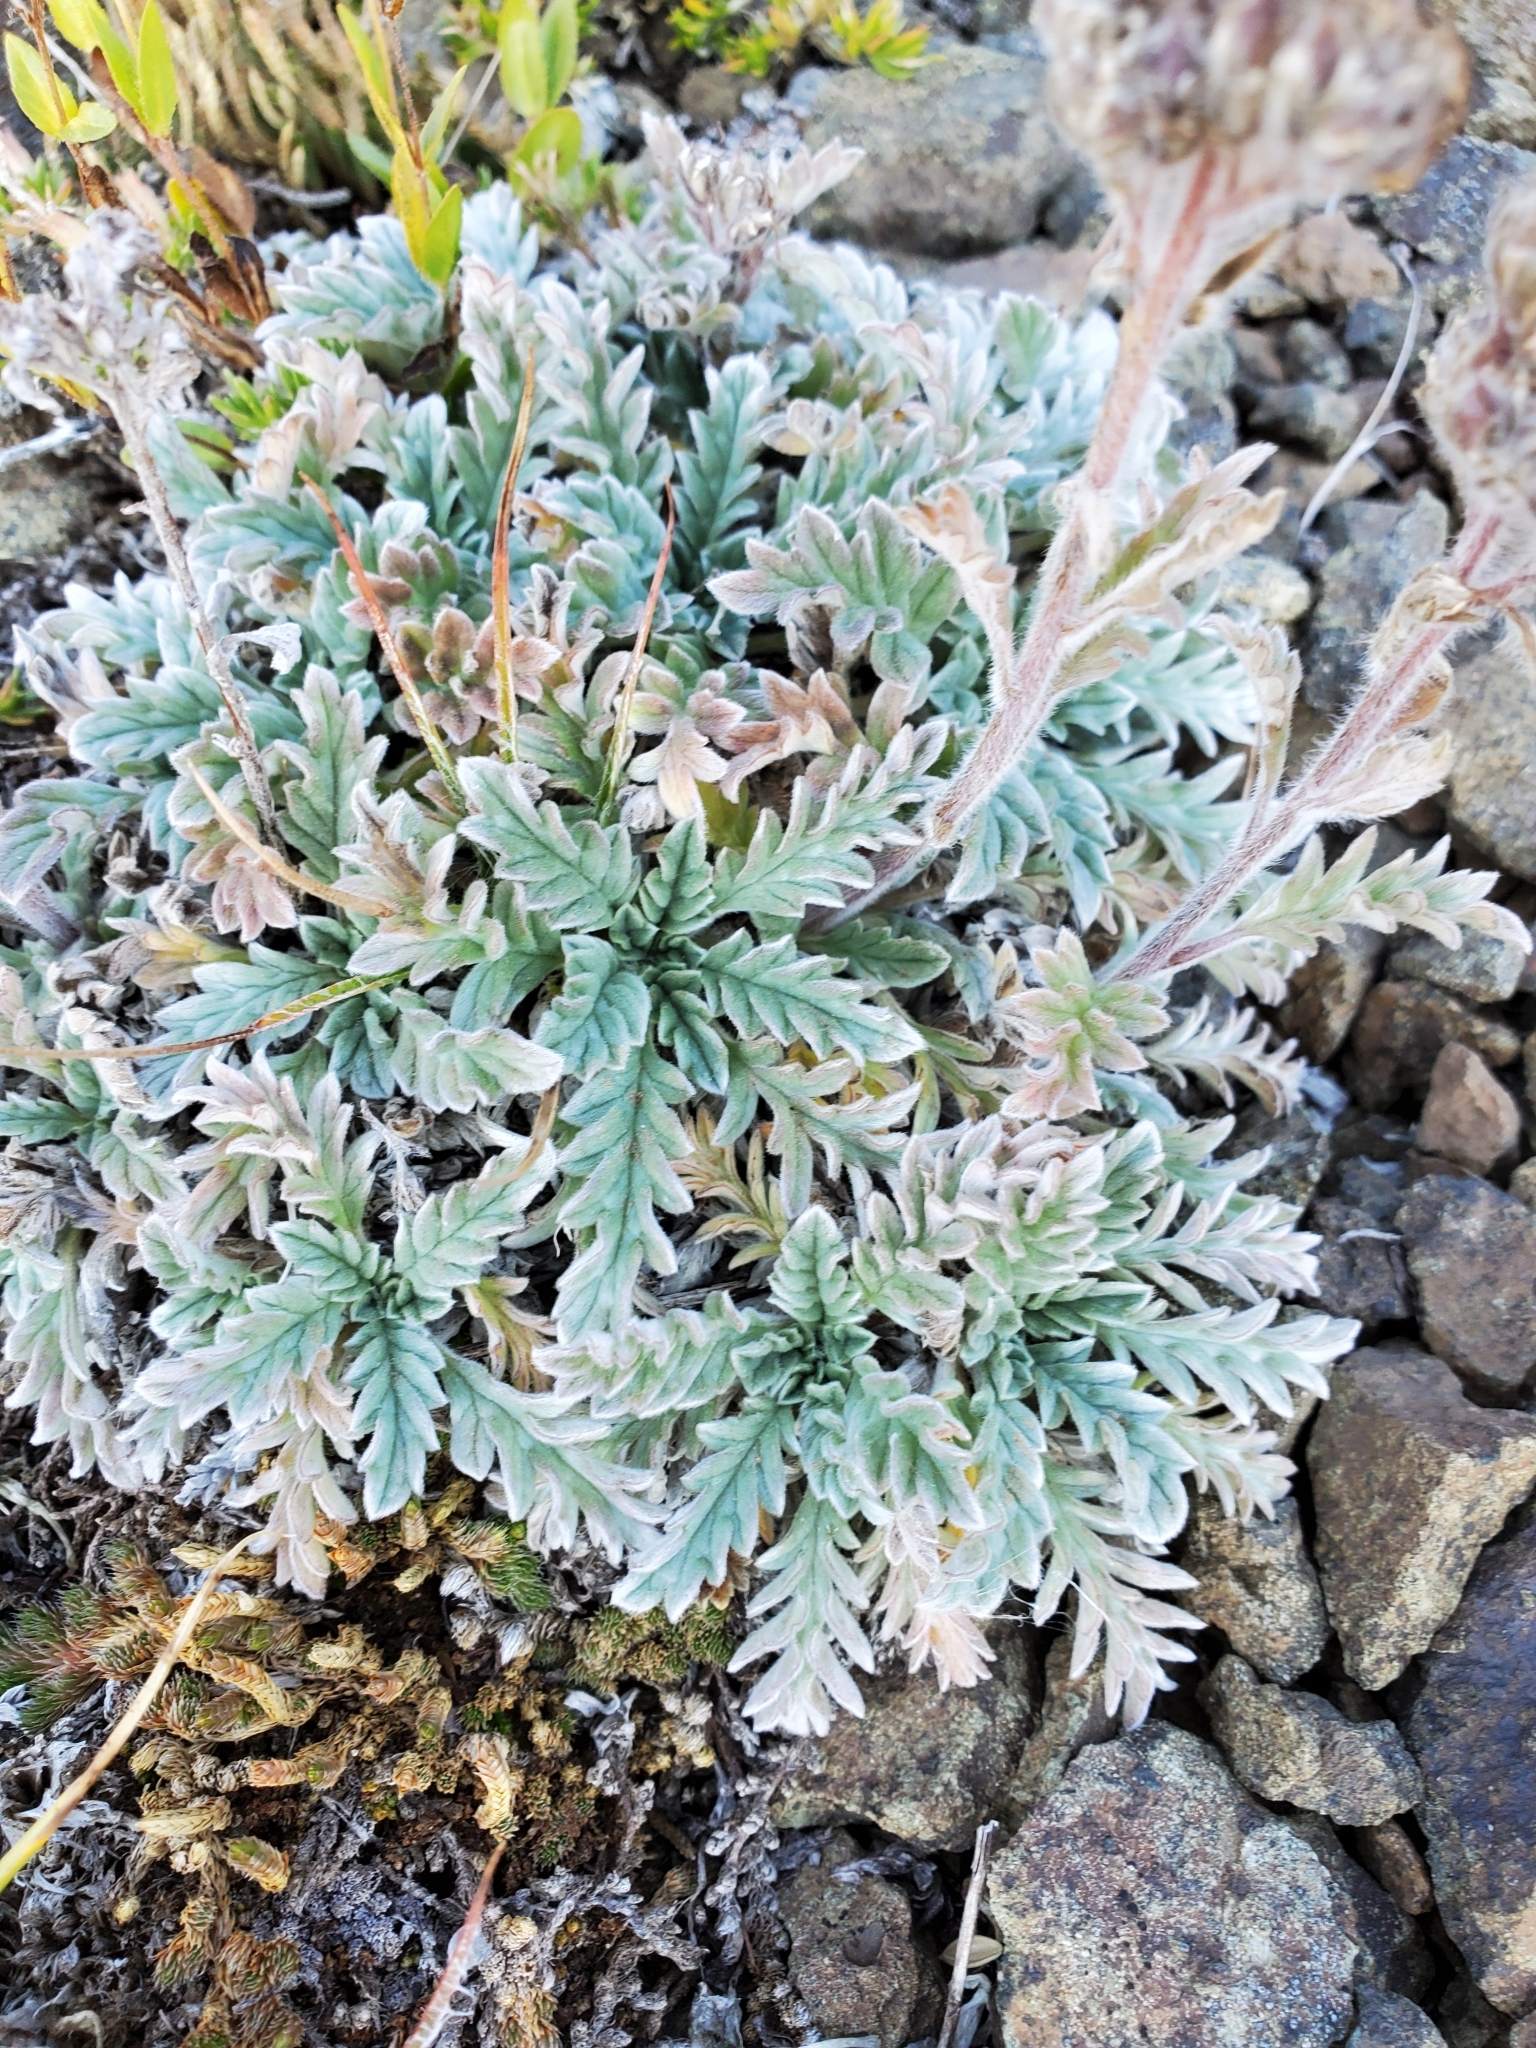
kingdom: Plantae
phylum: Tracheophyta
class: Magnoliopsida
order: Boraginales
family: Hydrophyllaceae
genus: Phacelia
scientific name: Phacelia sericea
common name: Silky phacelia
